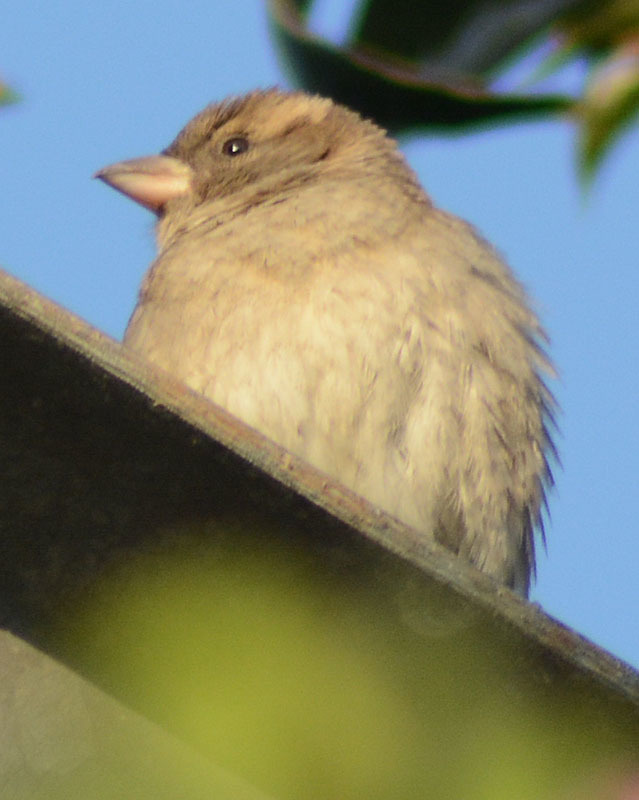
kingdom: Animalia
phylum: Chordata
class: Aves
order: Passeriformes
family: Passeridae
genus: Passer
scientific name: Passer domesticus
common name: House sparrow
